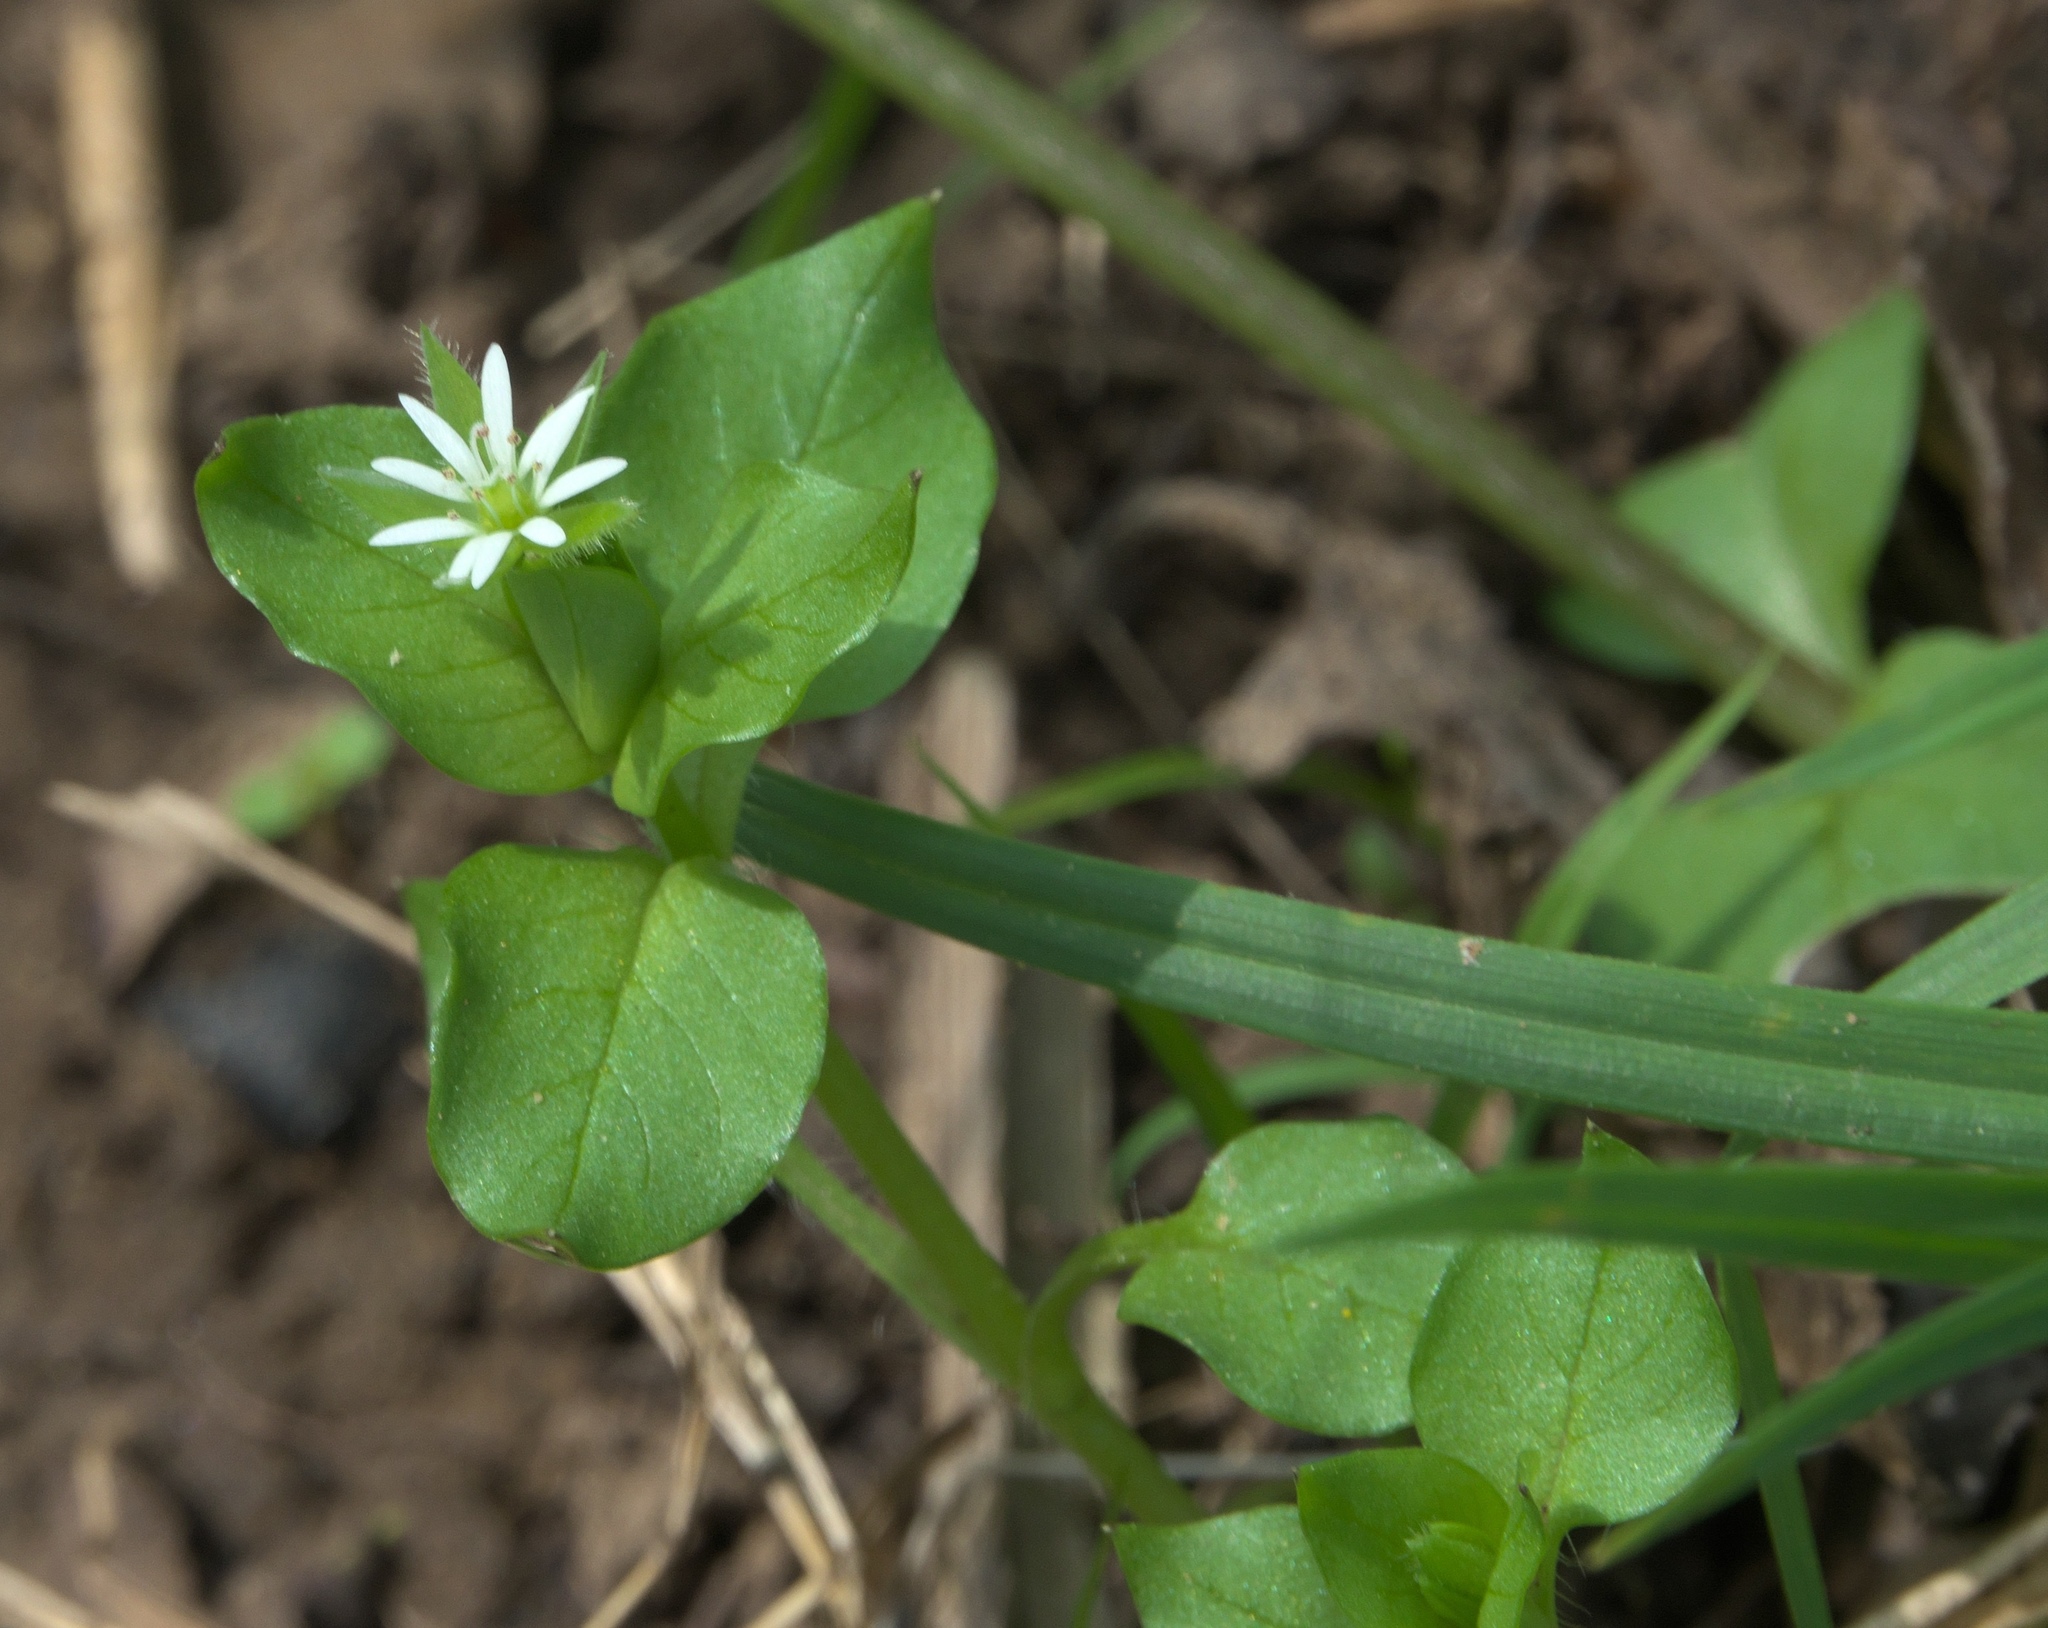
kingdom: Plantae
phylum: Tracheophyta
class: Magnoliopsida
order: Caryophyllales
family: Caryophyllaceae
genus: Stellaria
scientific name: Stellaria media
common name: Common chickweed
